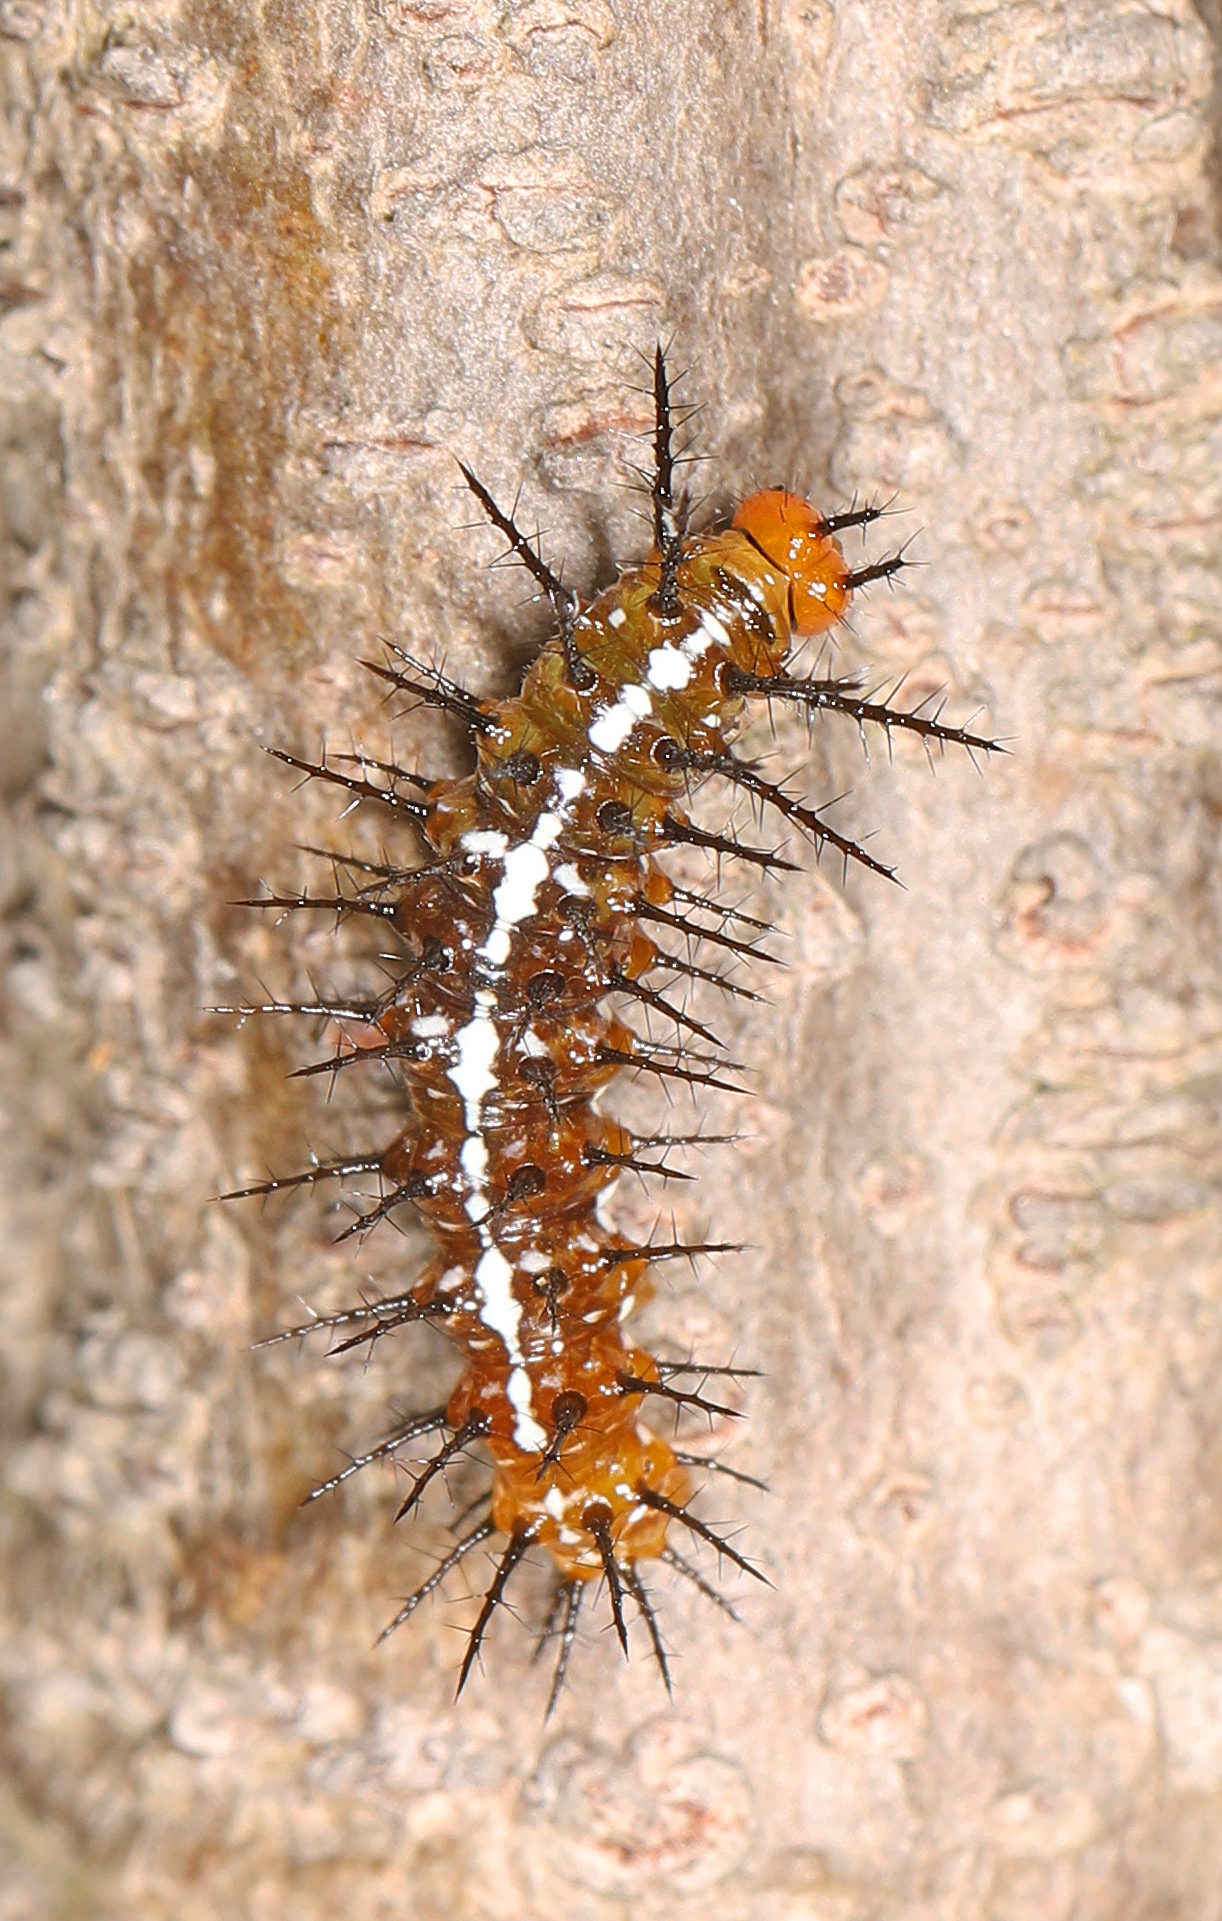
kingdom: Animalia
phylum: Arthropoda
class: Insecta
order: Lepidoptera
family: Nymphalidae
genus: Dryas
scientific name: Dryas iulia
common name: Flambeau
